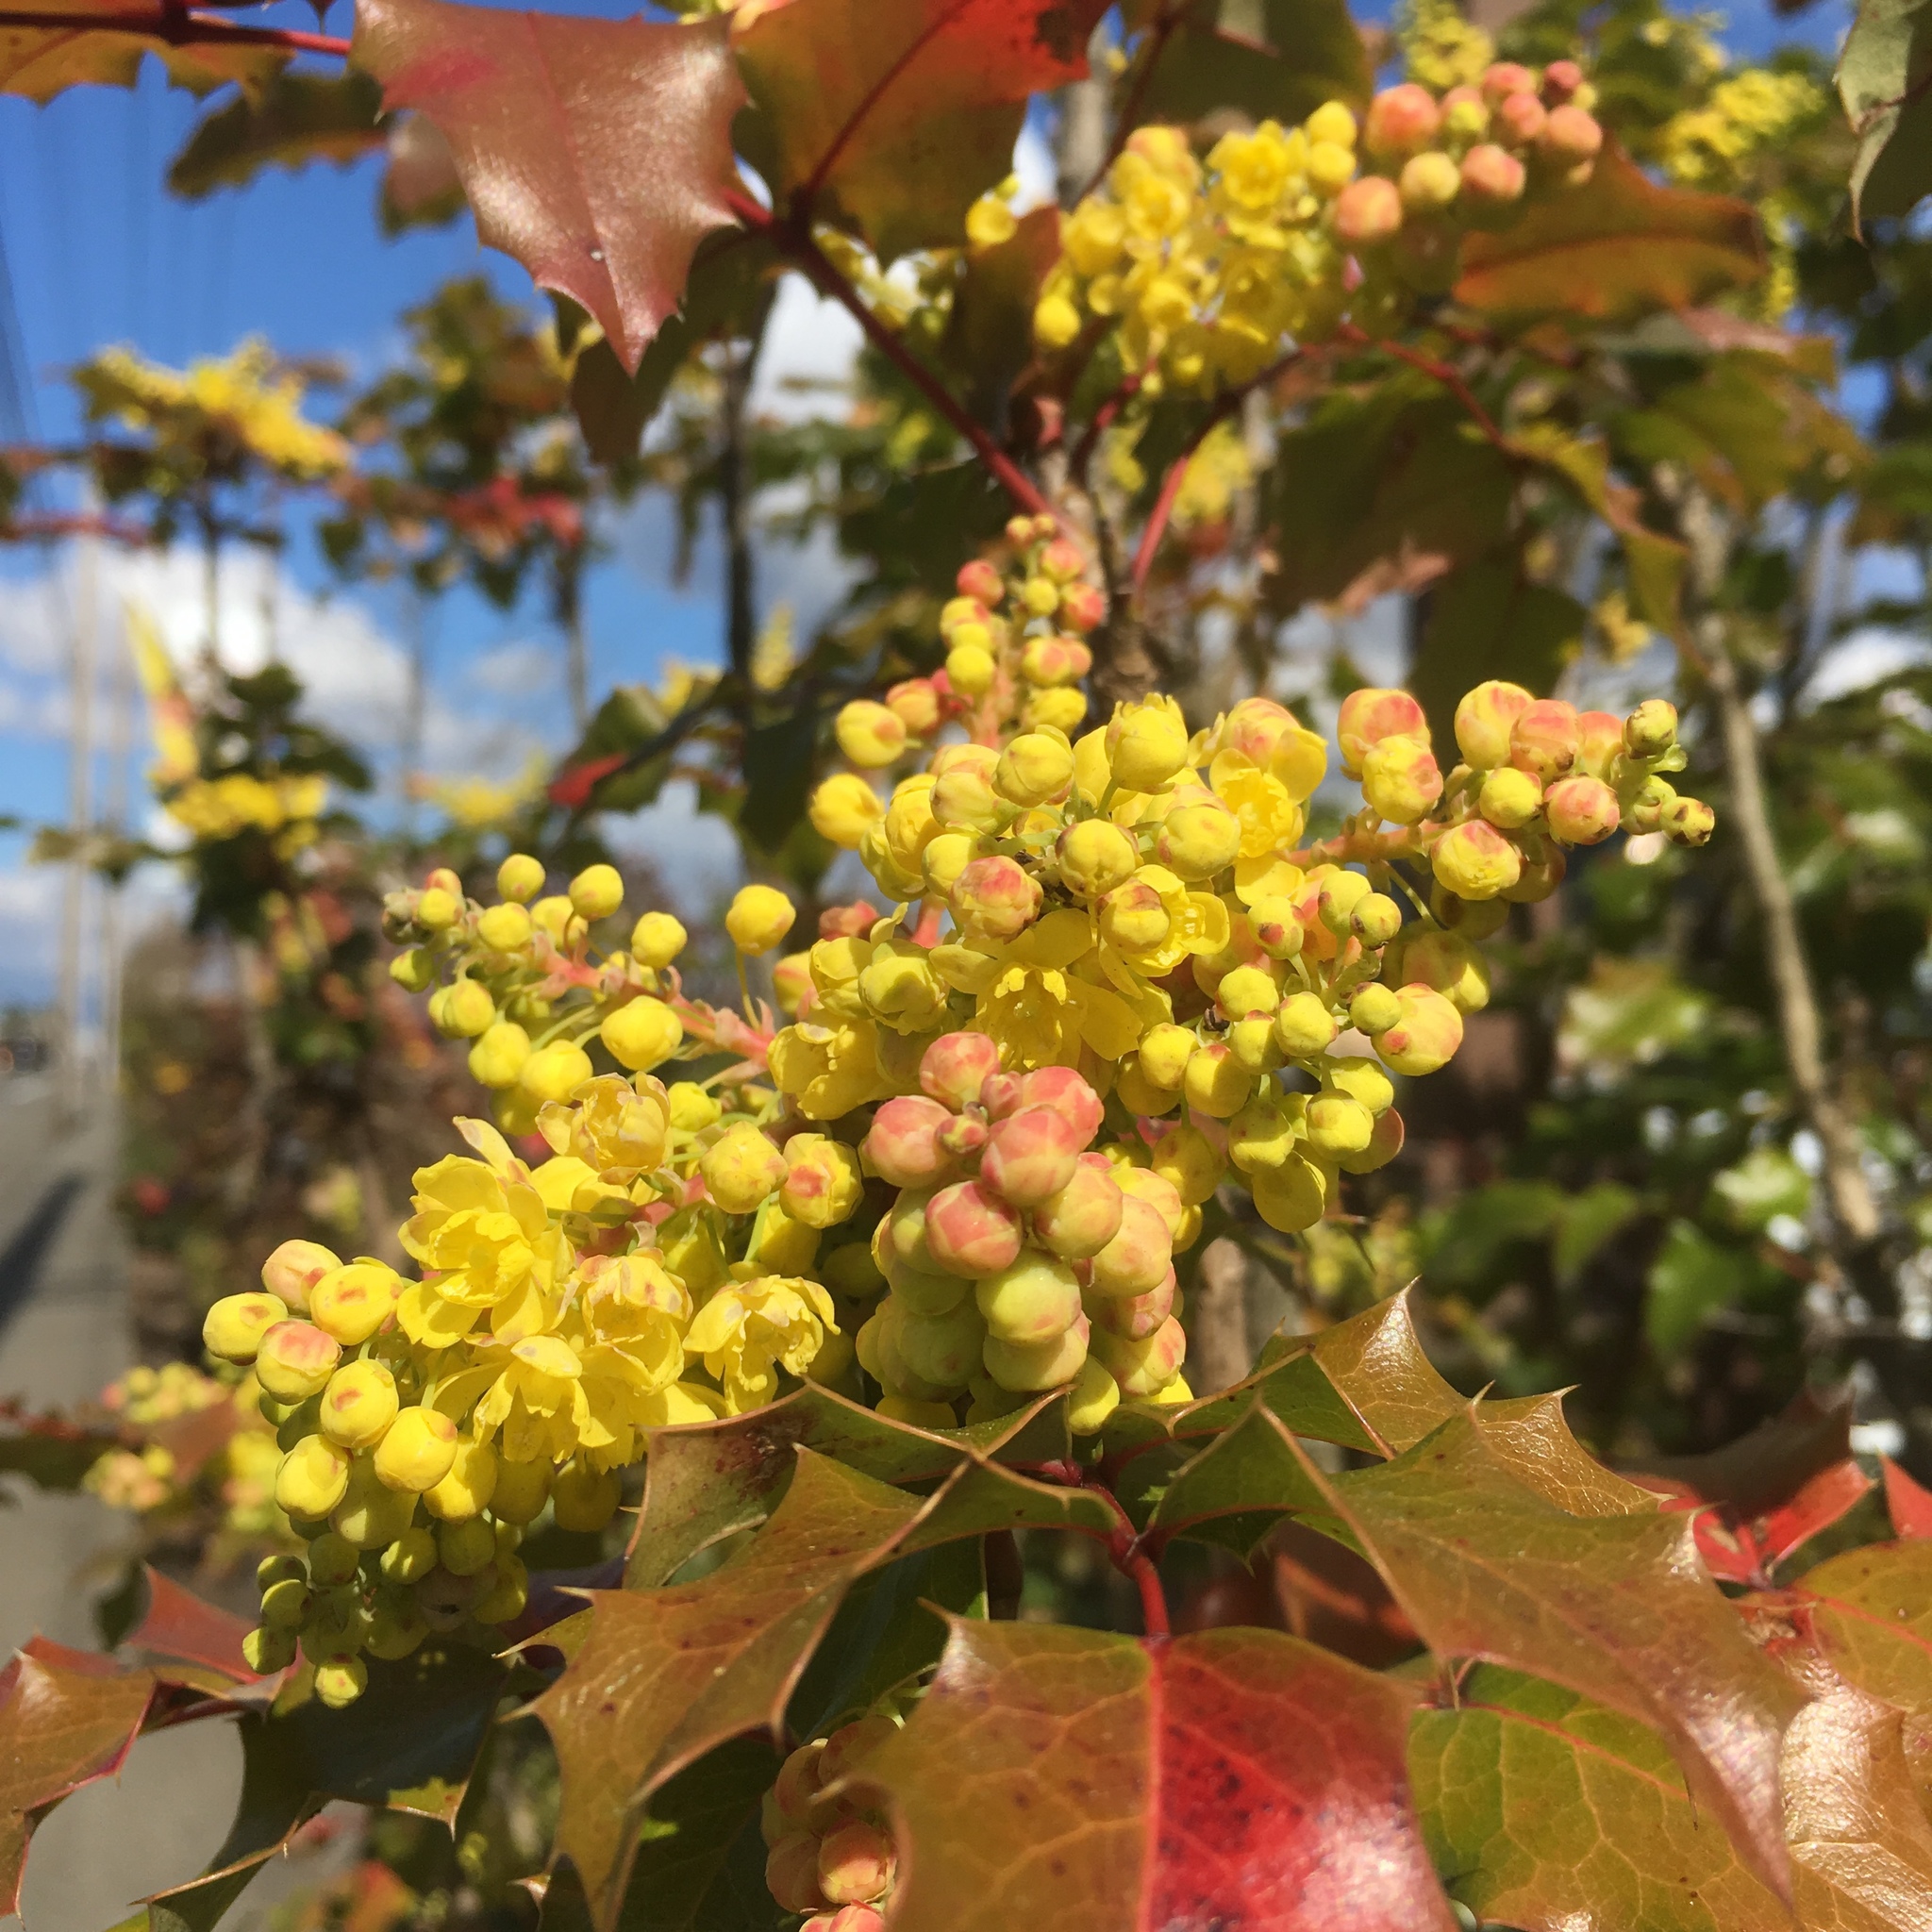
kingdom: Plantae
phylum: Tracheophyta
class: Magnoliopsida
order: Ranunculales
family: Berberidaceae
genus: Mahonia
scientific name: Mahonia aquifolium
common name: Oregon-grape
